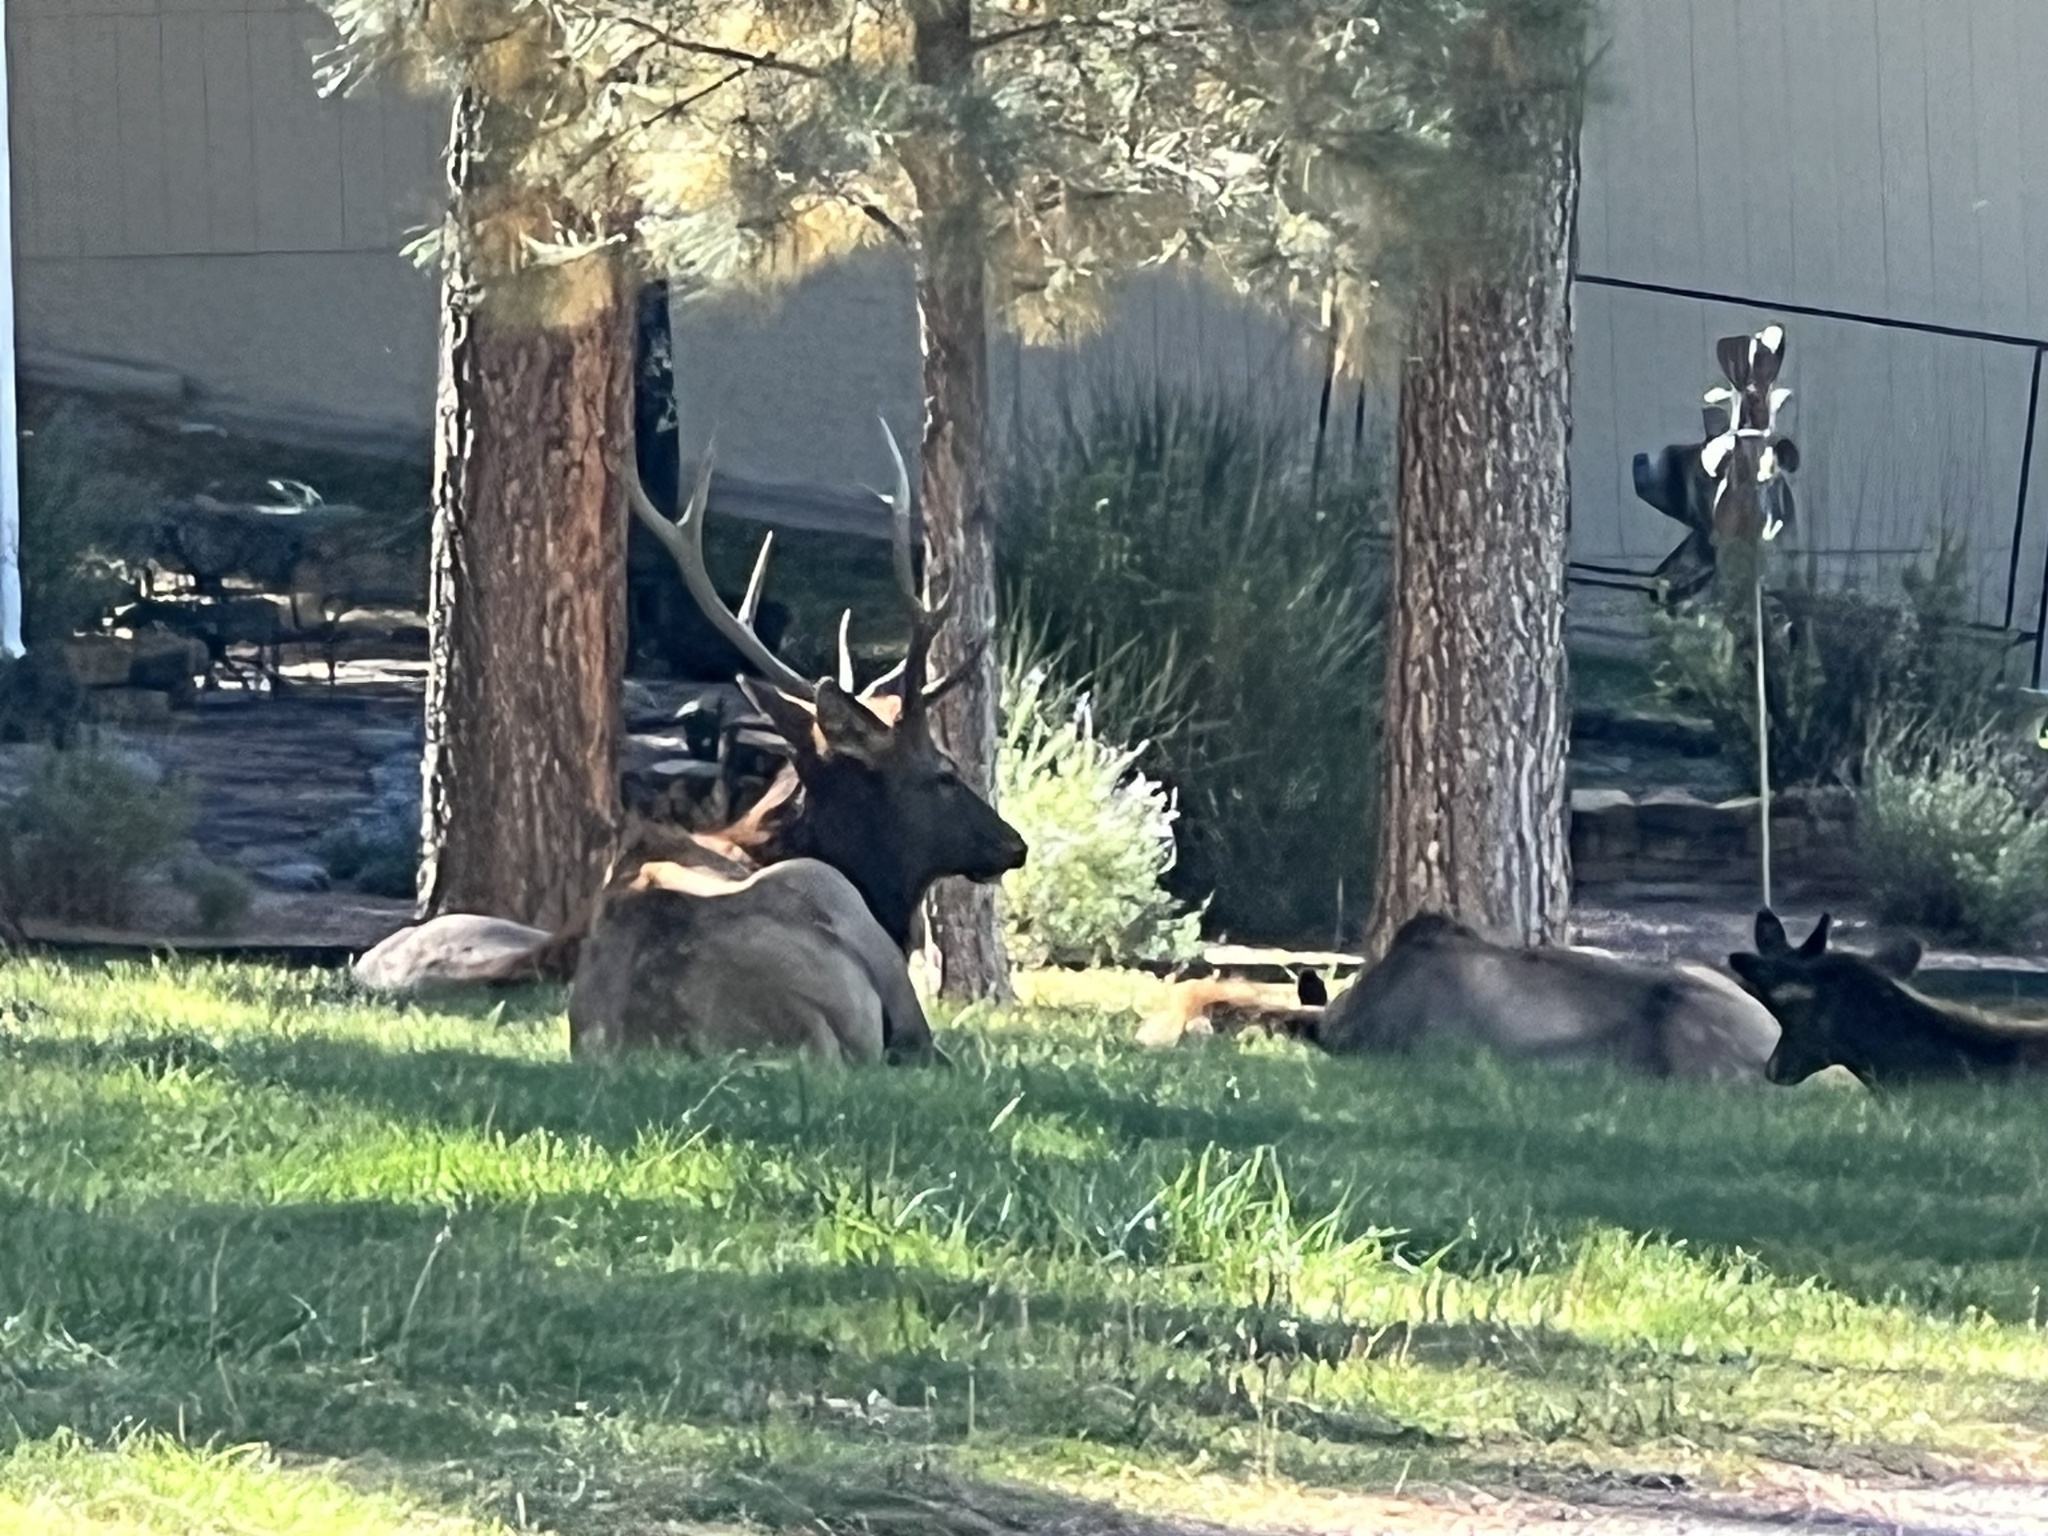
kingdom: Animalia
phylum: Chordata
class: Mammalia
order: Artiodactyla
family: Cervidae
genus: Cervus
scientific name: Cervus elaphus
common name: Red deer
